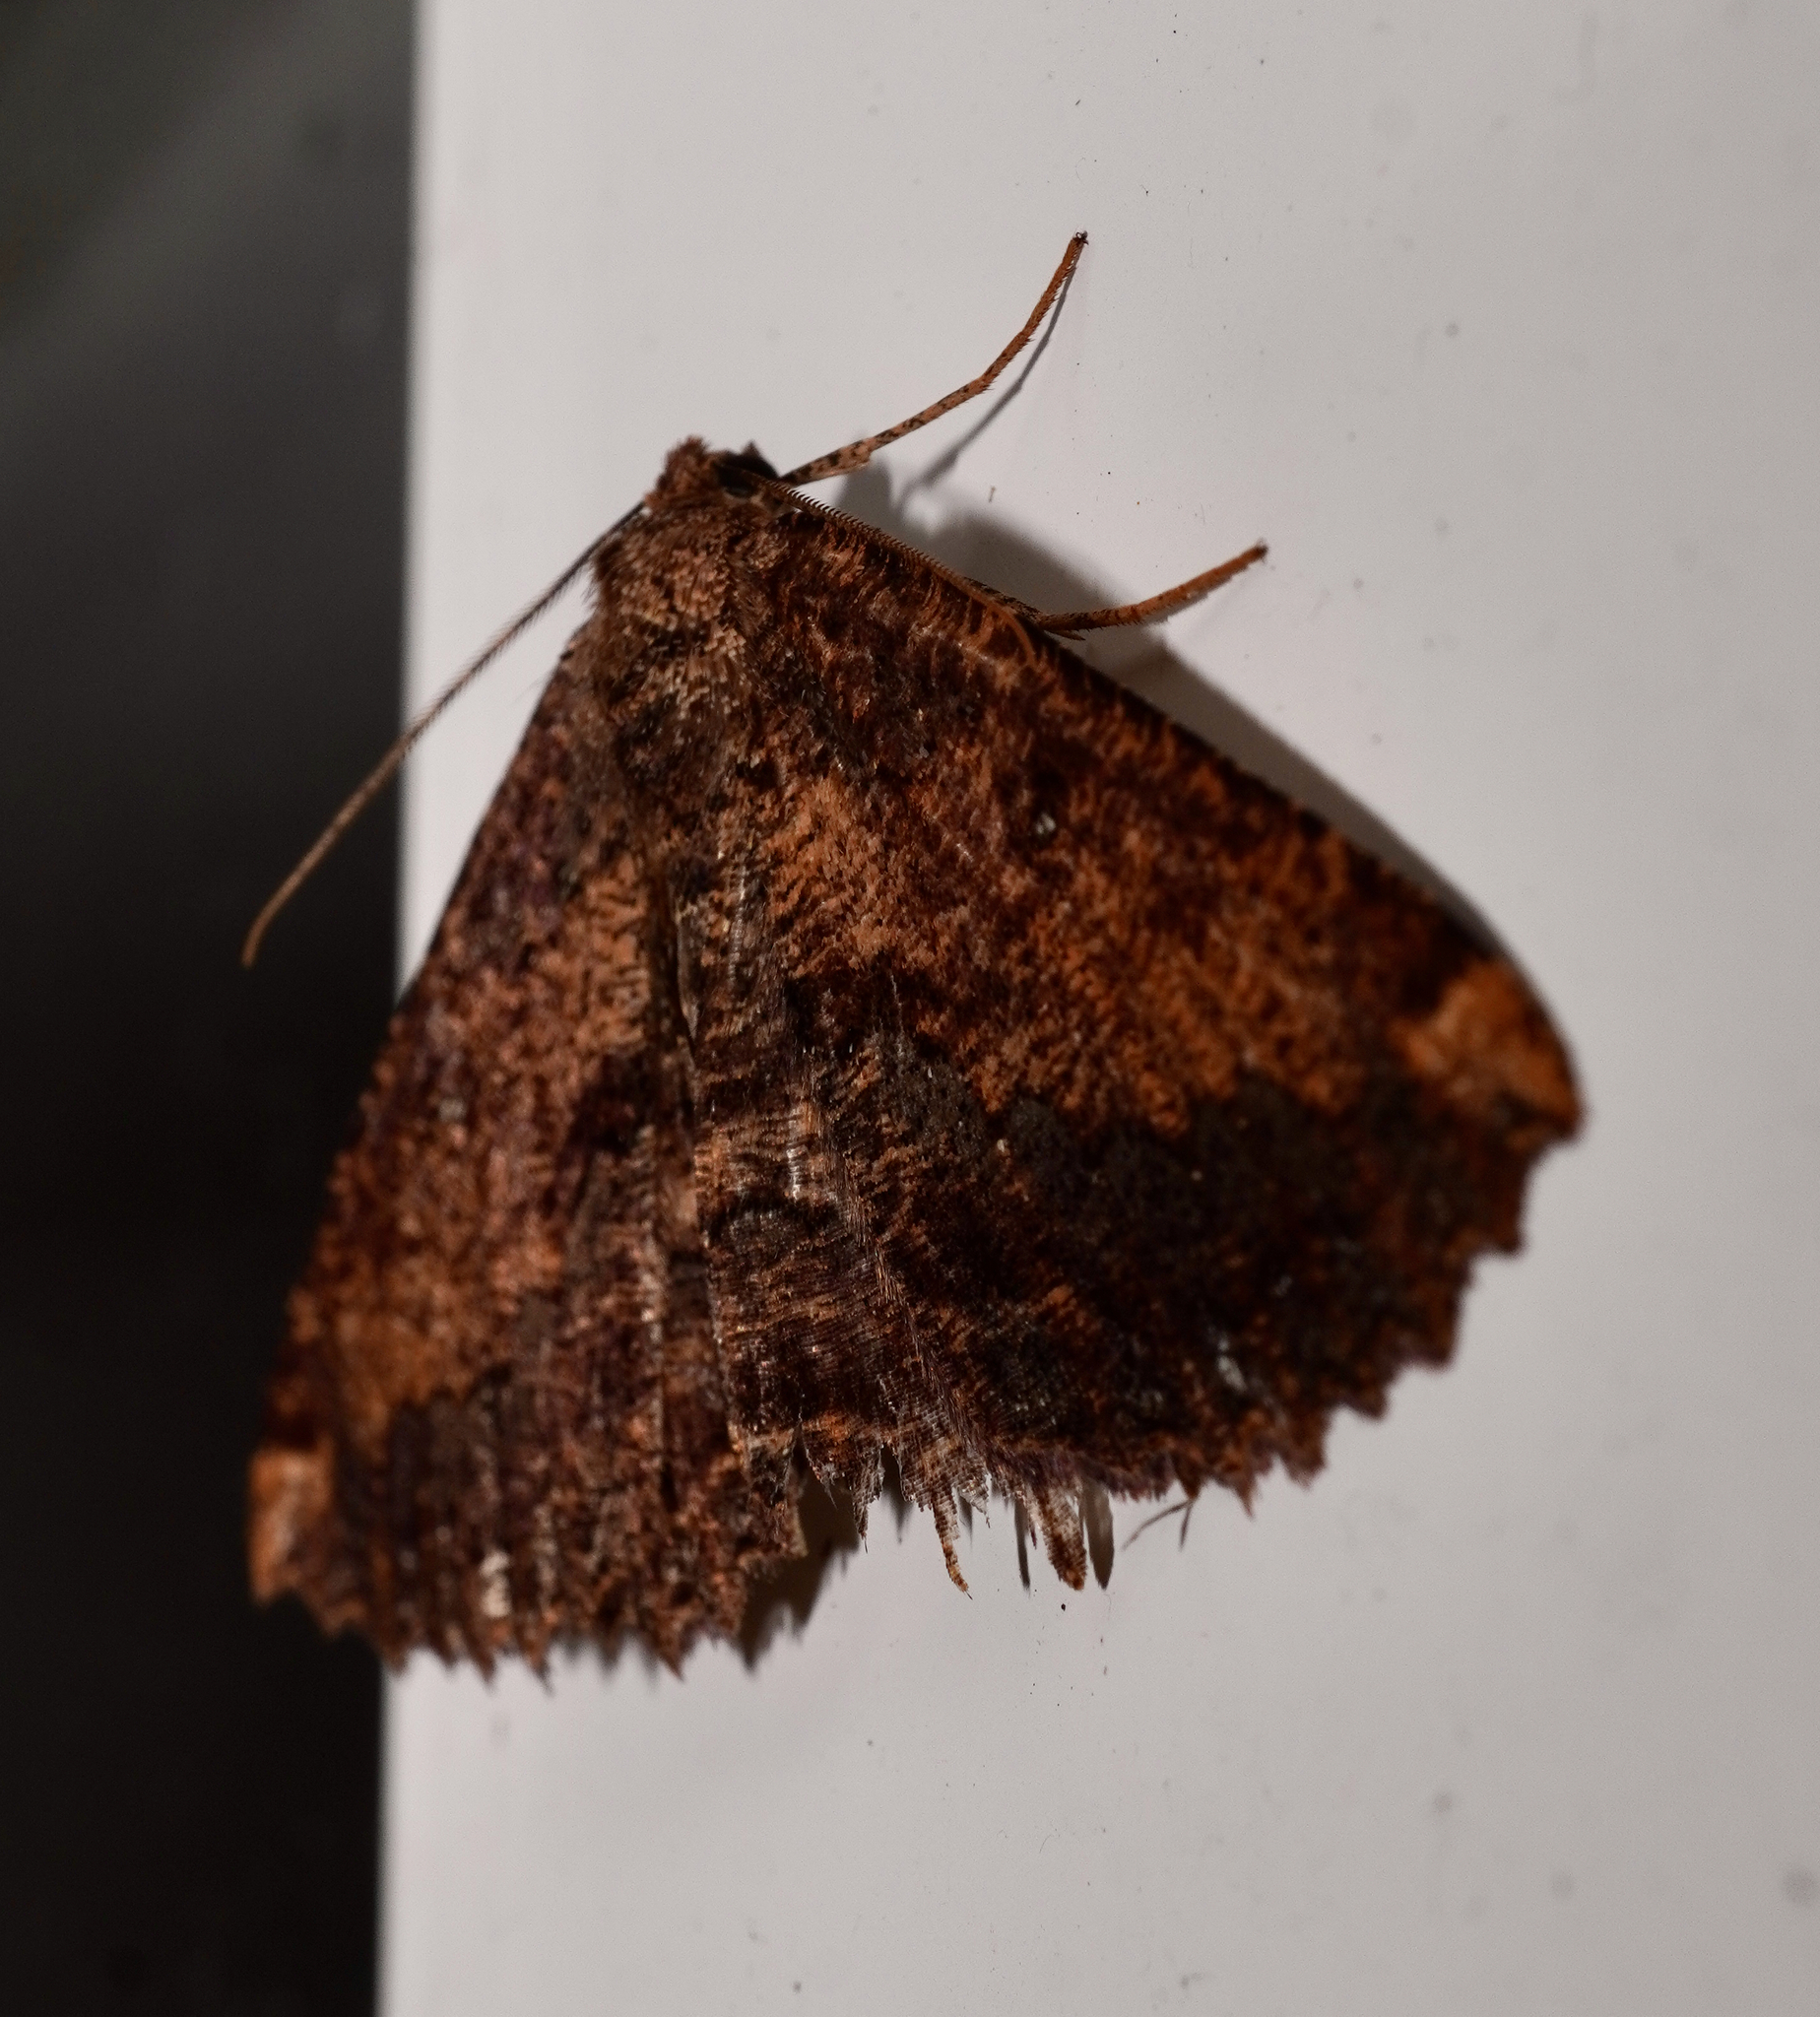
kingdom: Animalia
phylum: Arthropoda
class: Insecta
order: Lepidoptera
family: Geometridae
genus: Gellonia
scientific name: Gellonia dejectaria
